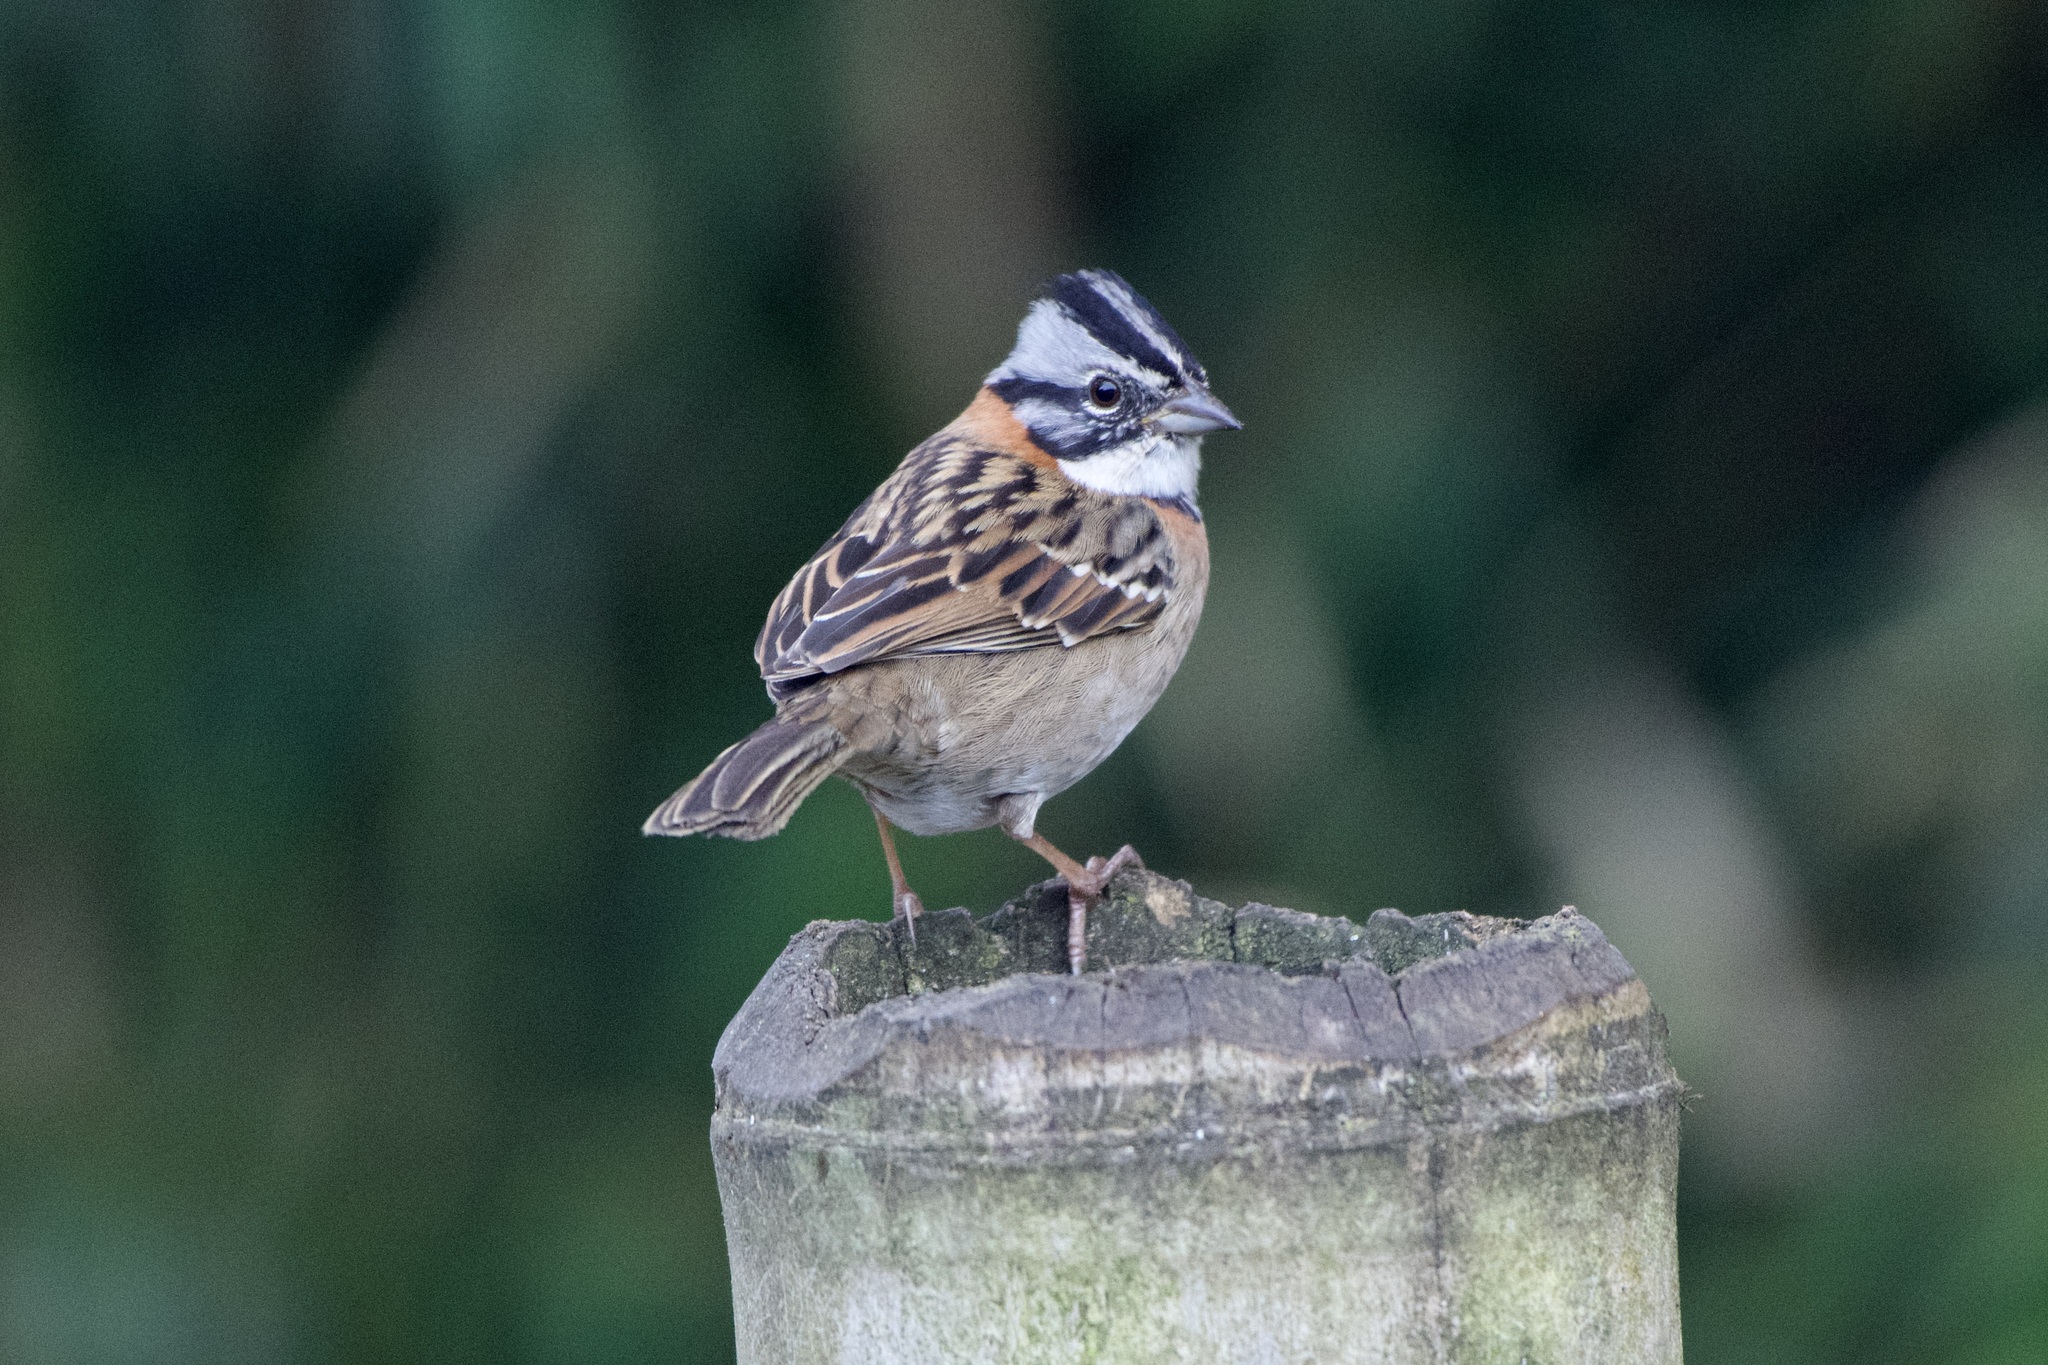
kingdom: Animalia
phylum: Chordata
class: Aves
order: Passeriformes
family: Passerellidae
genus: Zonotrichia
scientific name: Zonotrichia capensis
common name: Rufous-collared sparrow
